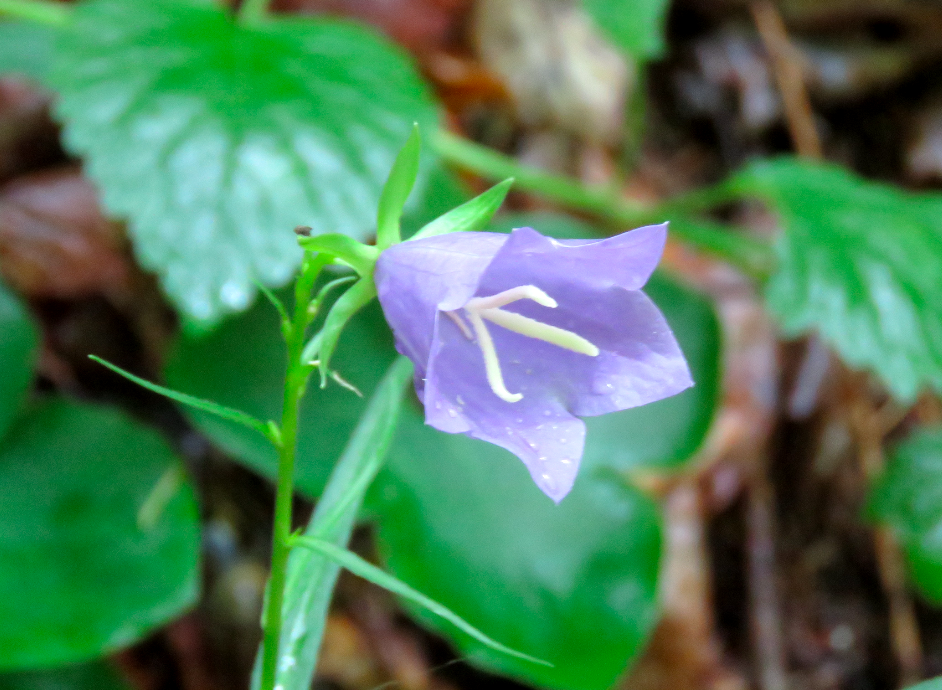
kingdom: Plantae
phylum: Tracheophyta
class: Magnoliopsida
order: Asterales
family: Campanulaceae
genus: Campanula
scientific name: Campanula persicifolia
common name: Peach-leaved bellflower
